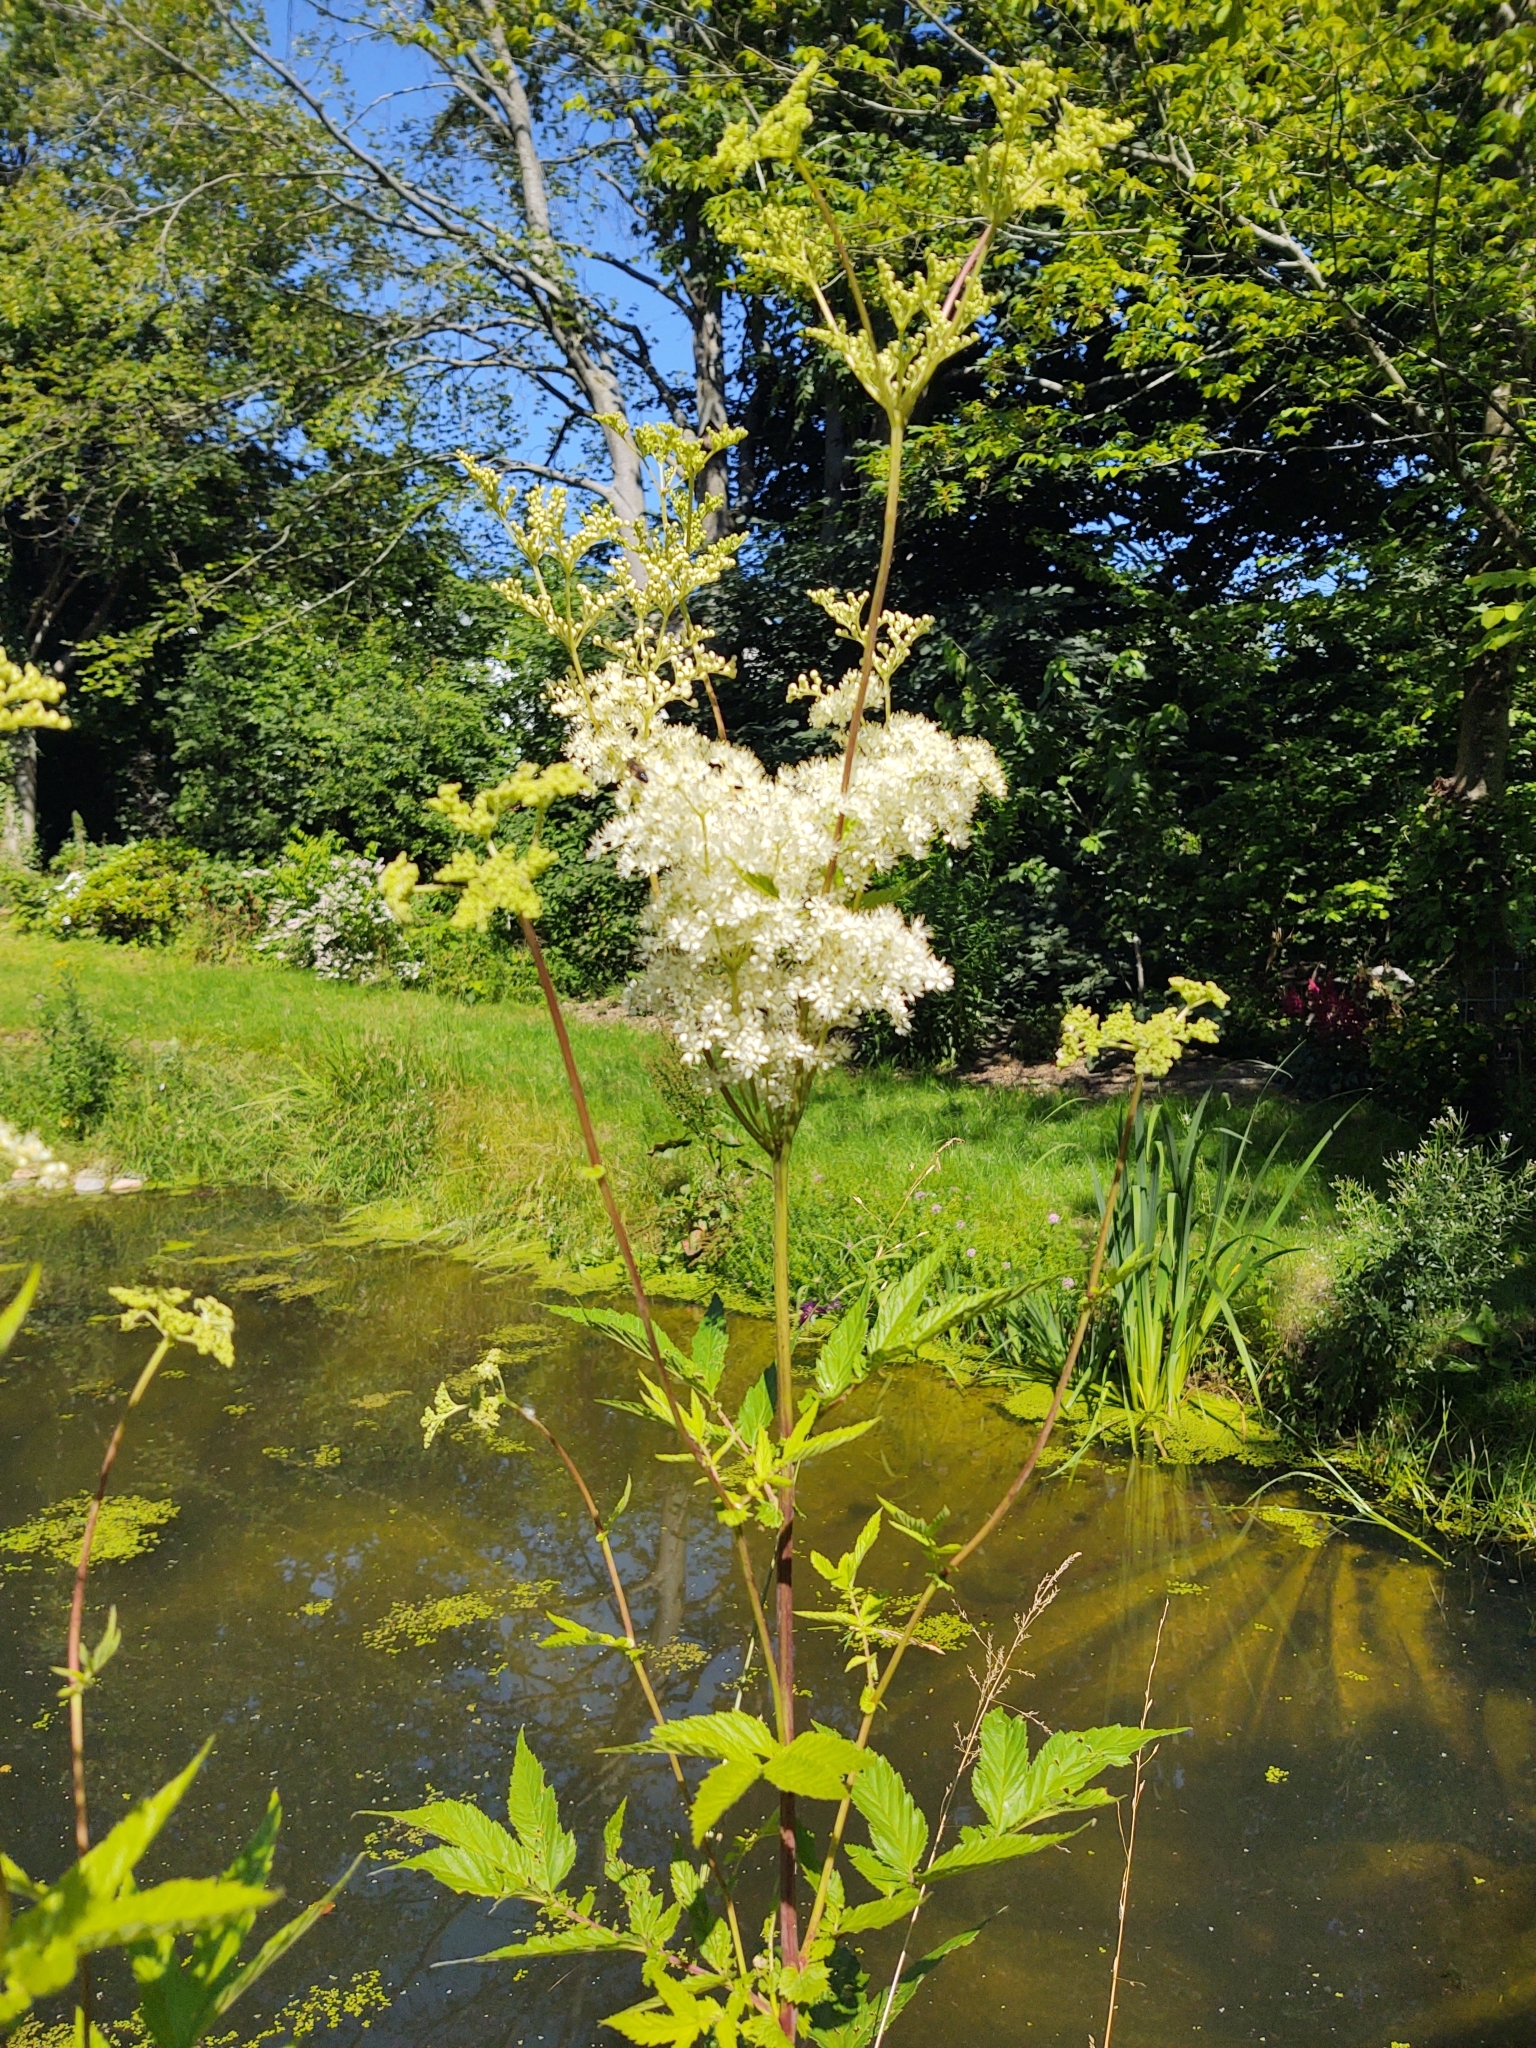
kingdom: Plantae
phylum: Tracheophyta
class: Magnoliopsida
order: Rosales
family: Rosaceae
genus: Filipendula
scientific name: Filipendula ulmaria
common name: Meadowsweet
